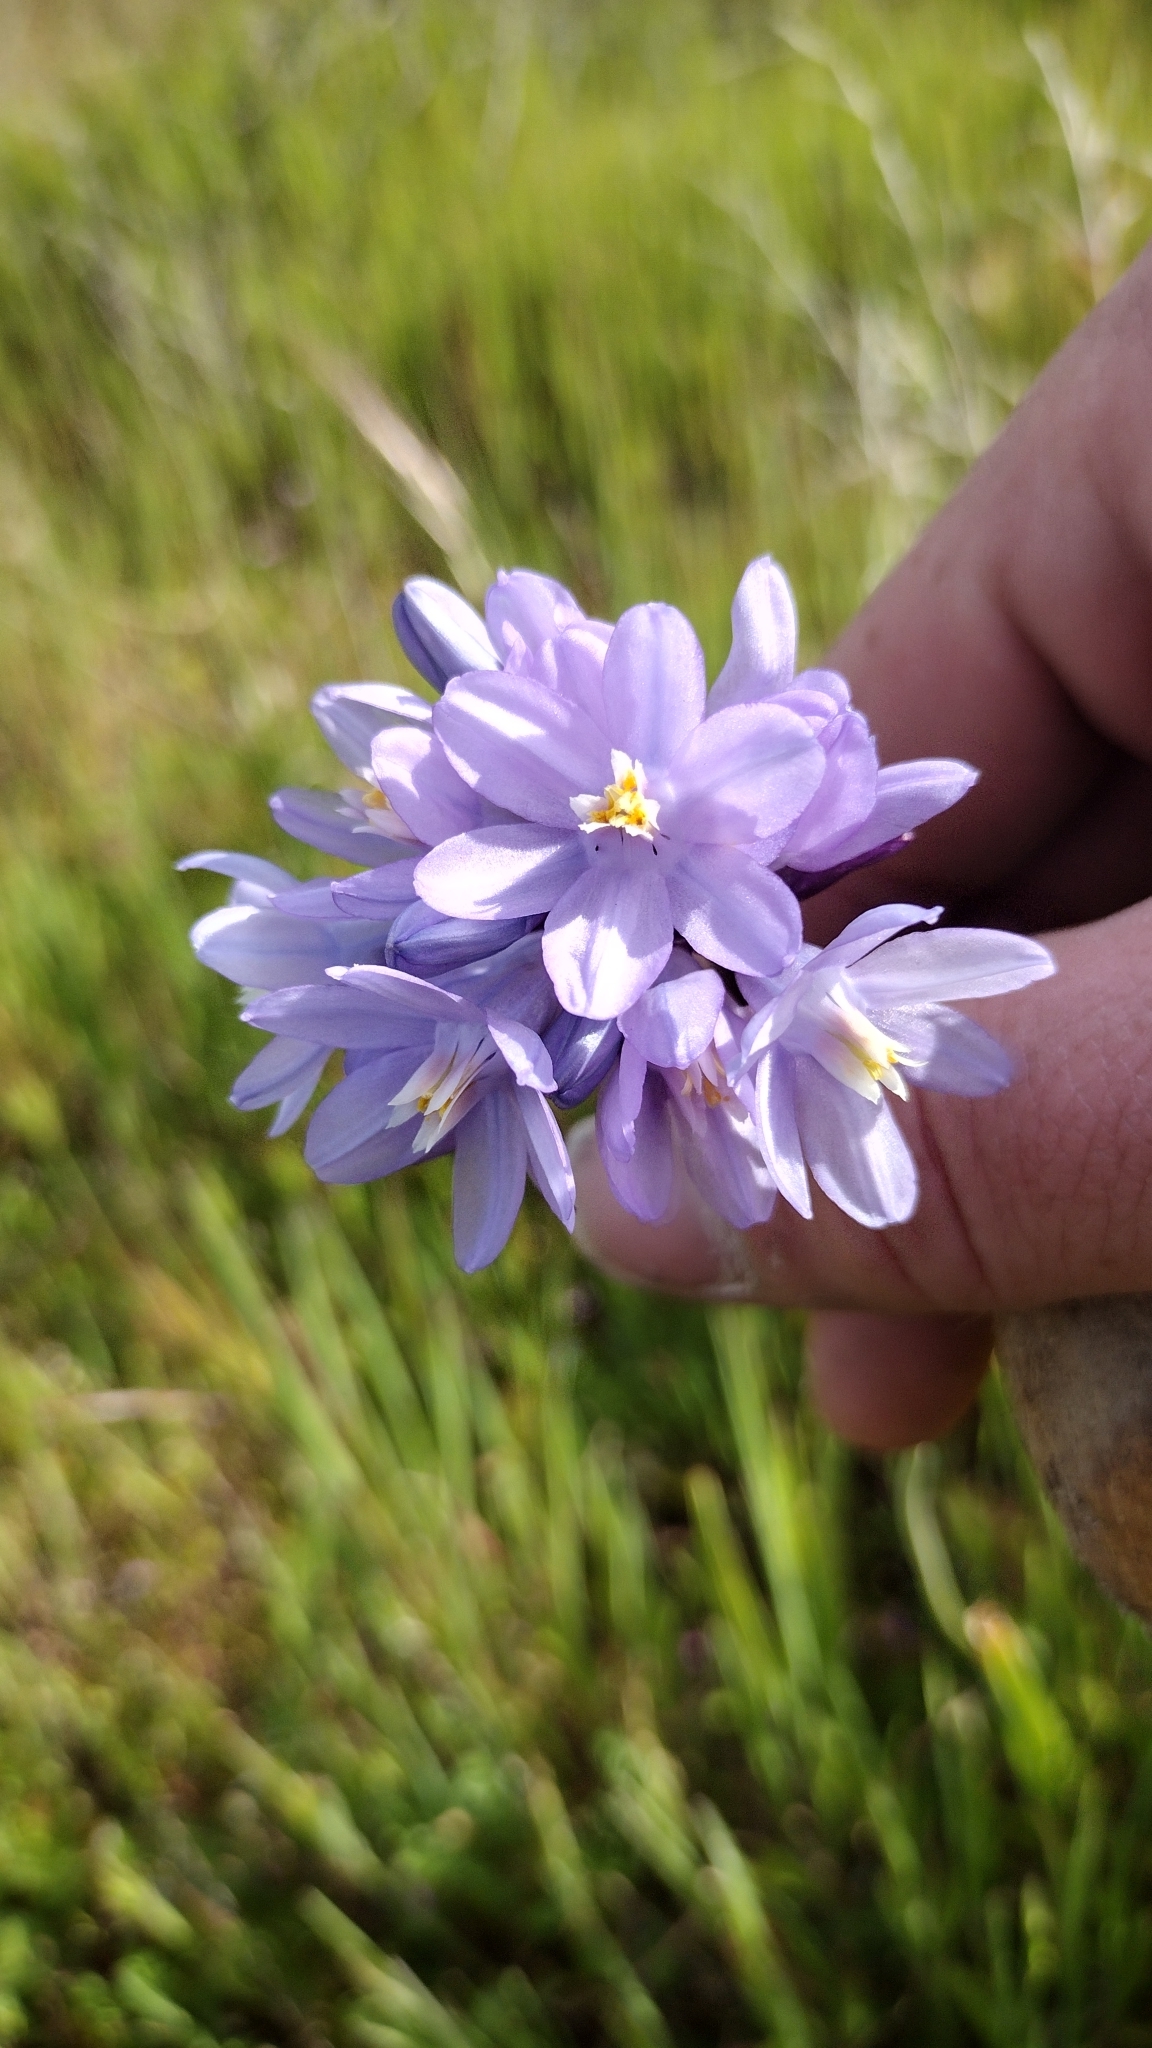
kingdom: Plantae
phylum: Tracheophyta
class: Liliopsida
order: Asparagales
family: Asparagaceae
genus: Dipterostemon
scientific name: Dipterostemon capitatus
